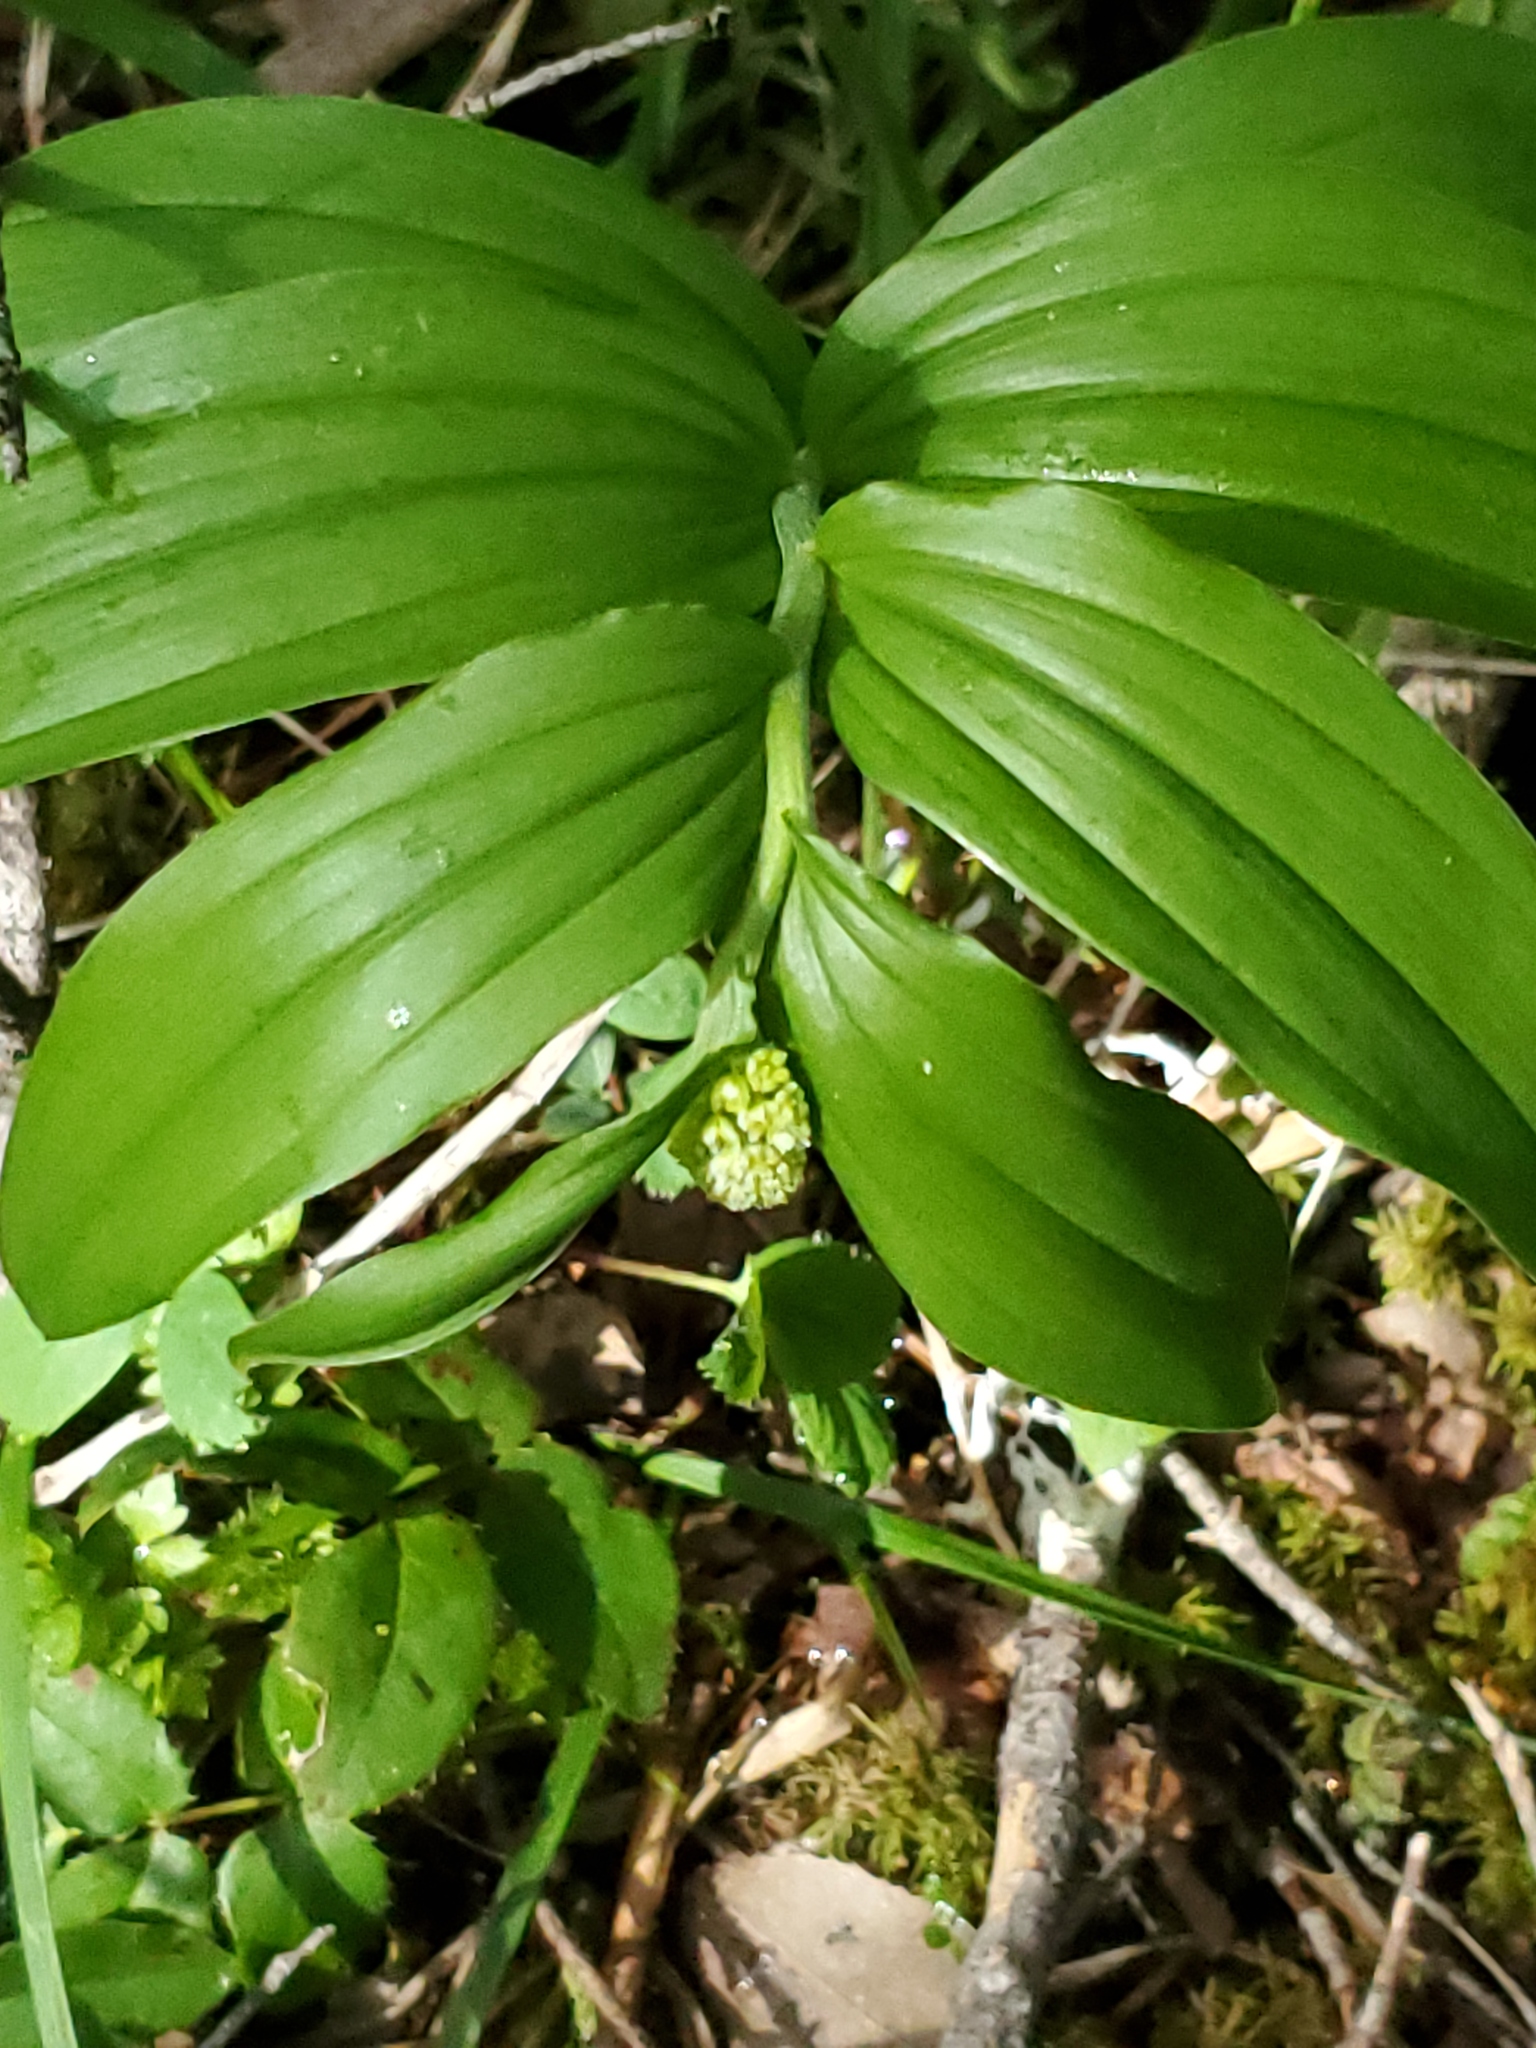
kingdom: Plantae
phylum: Tracheophyta
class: Liliopsida
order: Asparagales
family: Asparagaceae
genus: Maianthemum
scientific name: Maianthemum racemosum
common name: False spikenard
